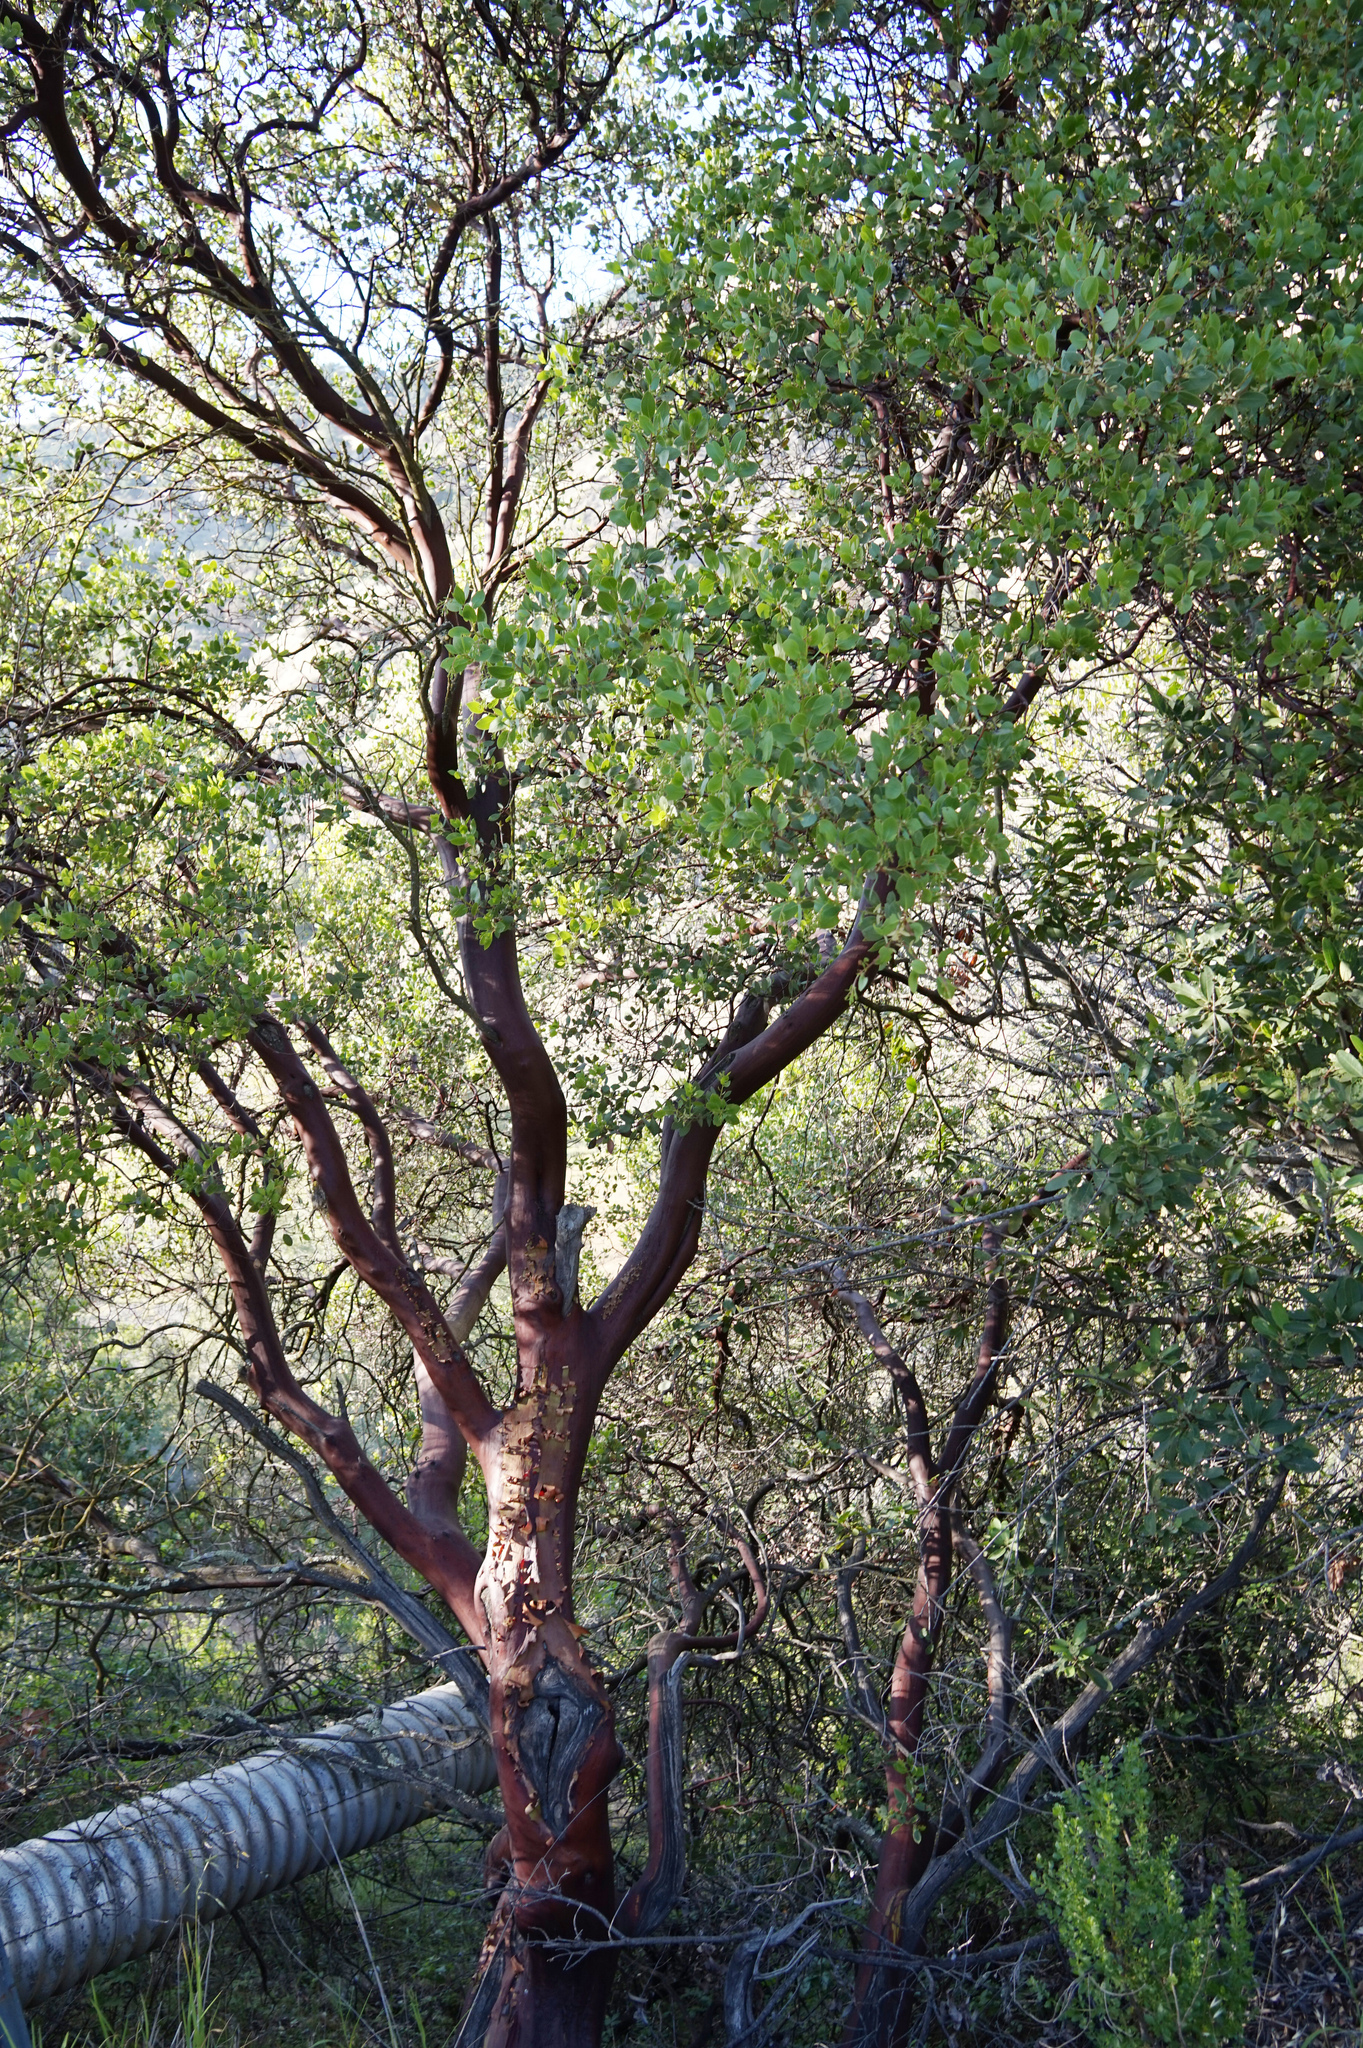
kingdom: Plantae
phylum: Tracheophyta
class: Magnoliopsida
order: Ericales
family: Ericaceae
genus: Arctostaphylos
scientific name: Arctostaphylos glauca
